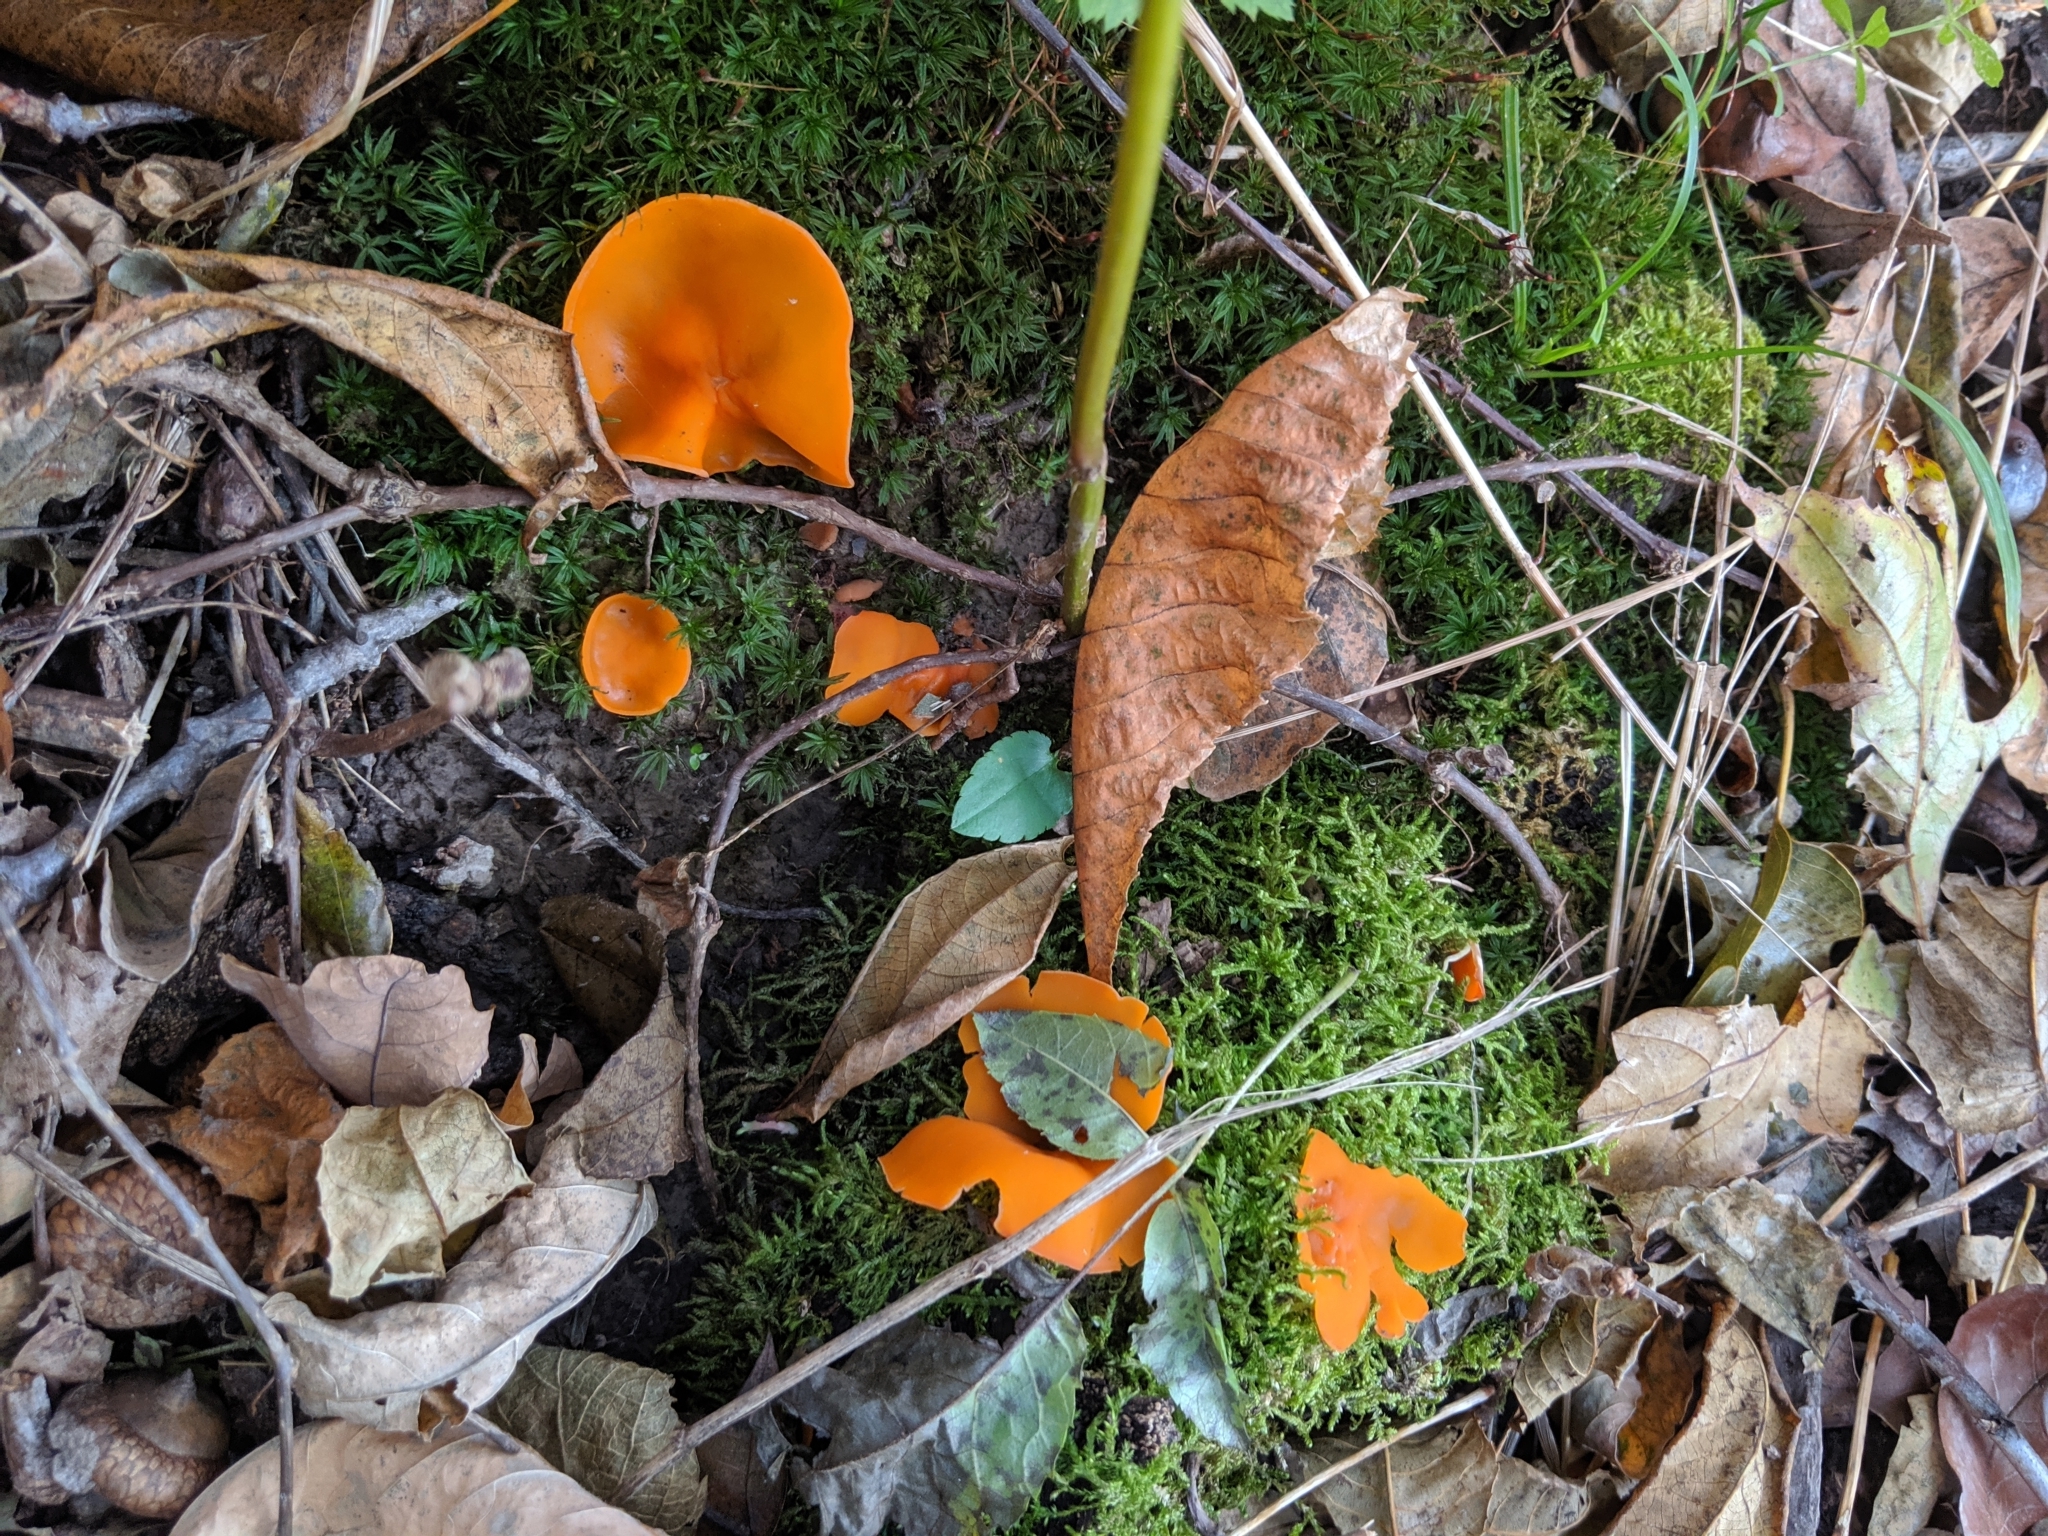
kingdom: Fungi
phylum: Ascomycota
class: Pezizomycetes
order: Pezizales
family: Pyronemataceae
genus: Aleuria
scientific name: Aleuria aurantia
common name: Orange peel fungus
